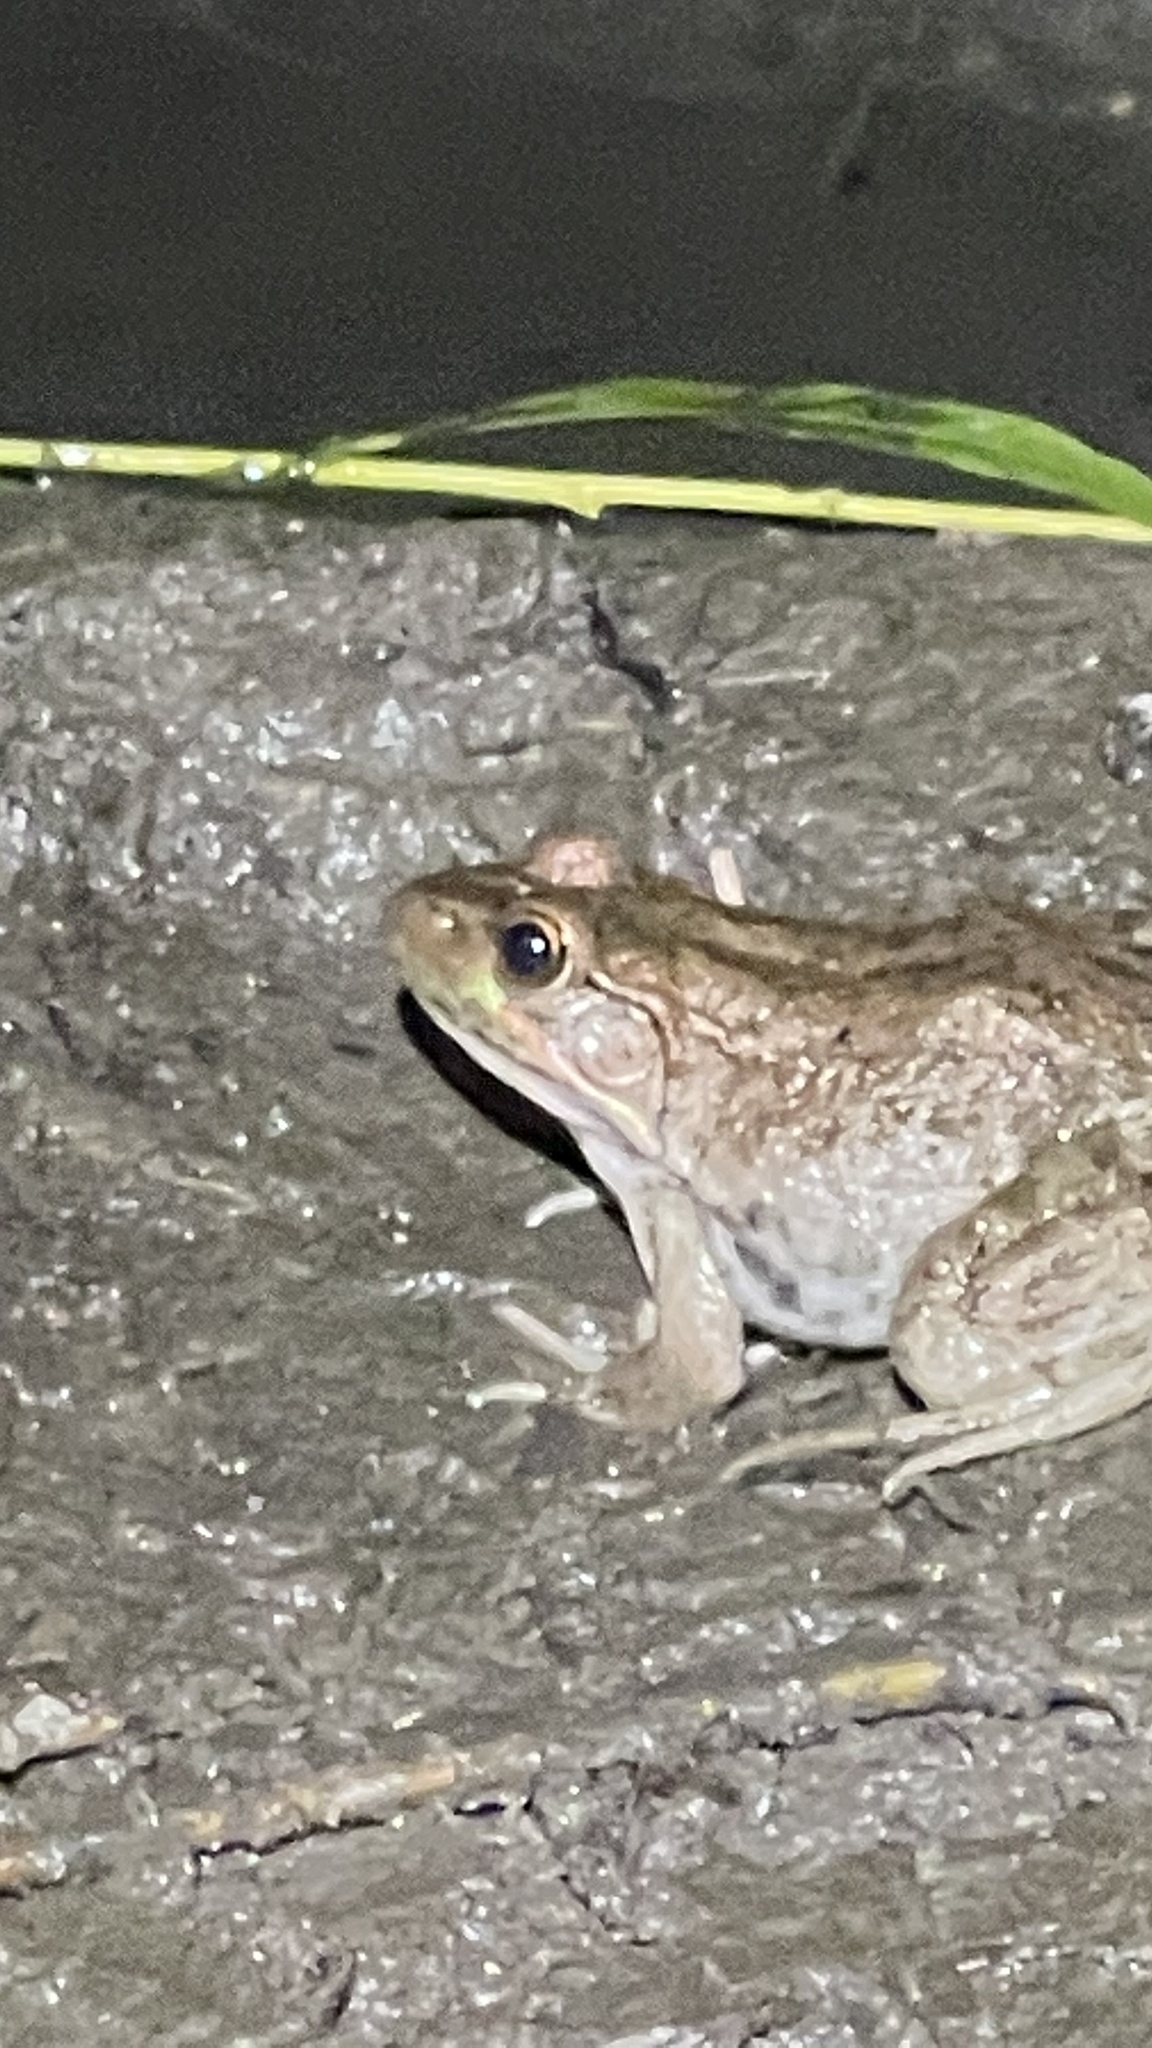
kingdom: Animalia
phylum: Chordata
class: Amphibia
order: Anura
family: Ranidae
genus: Lithobates
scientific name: Lithobates clamitans
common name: Green frog
